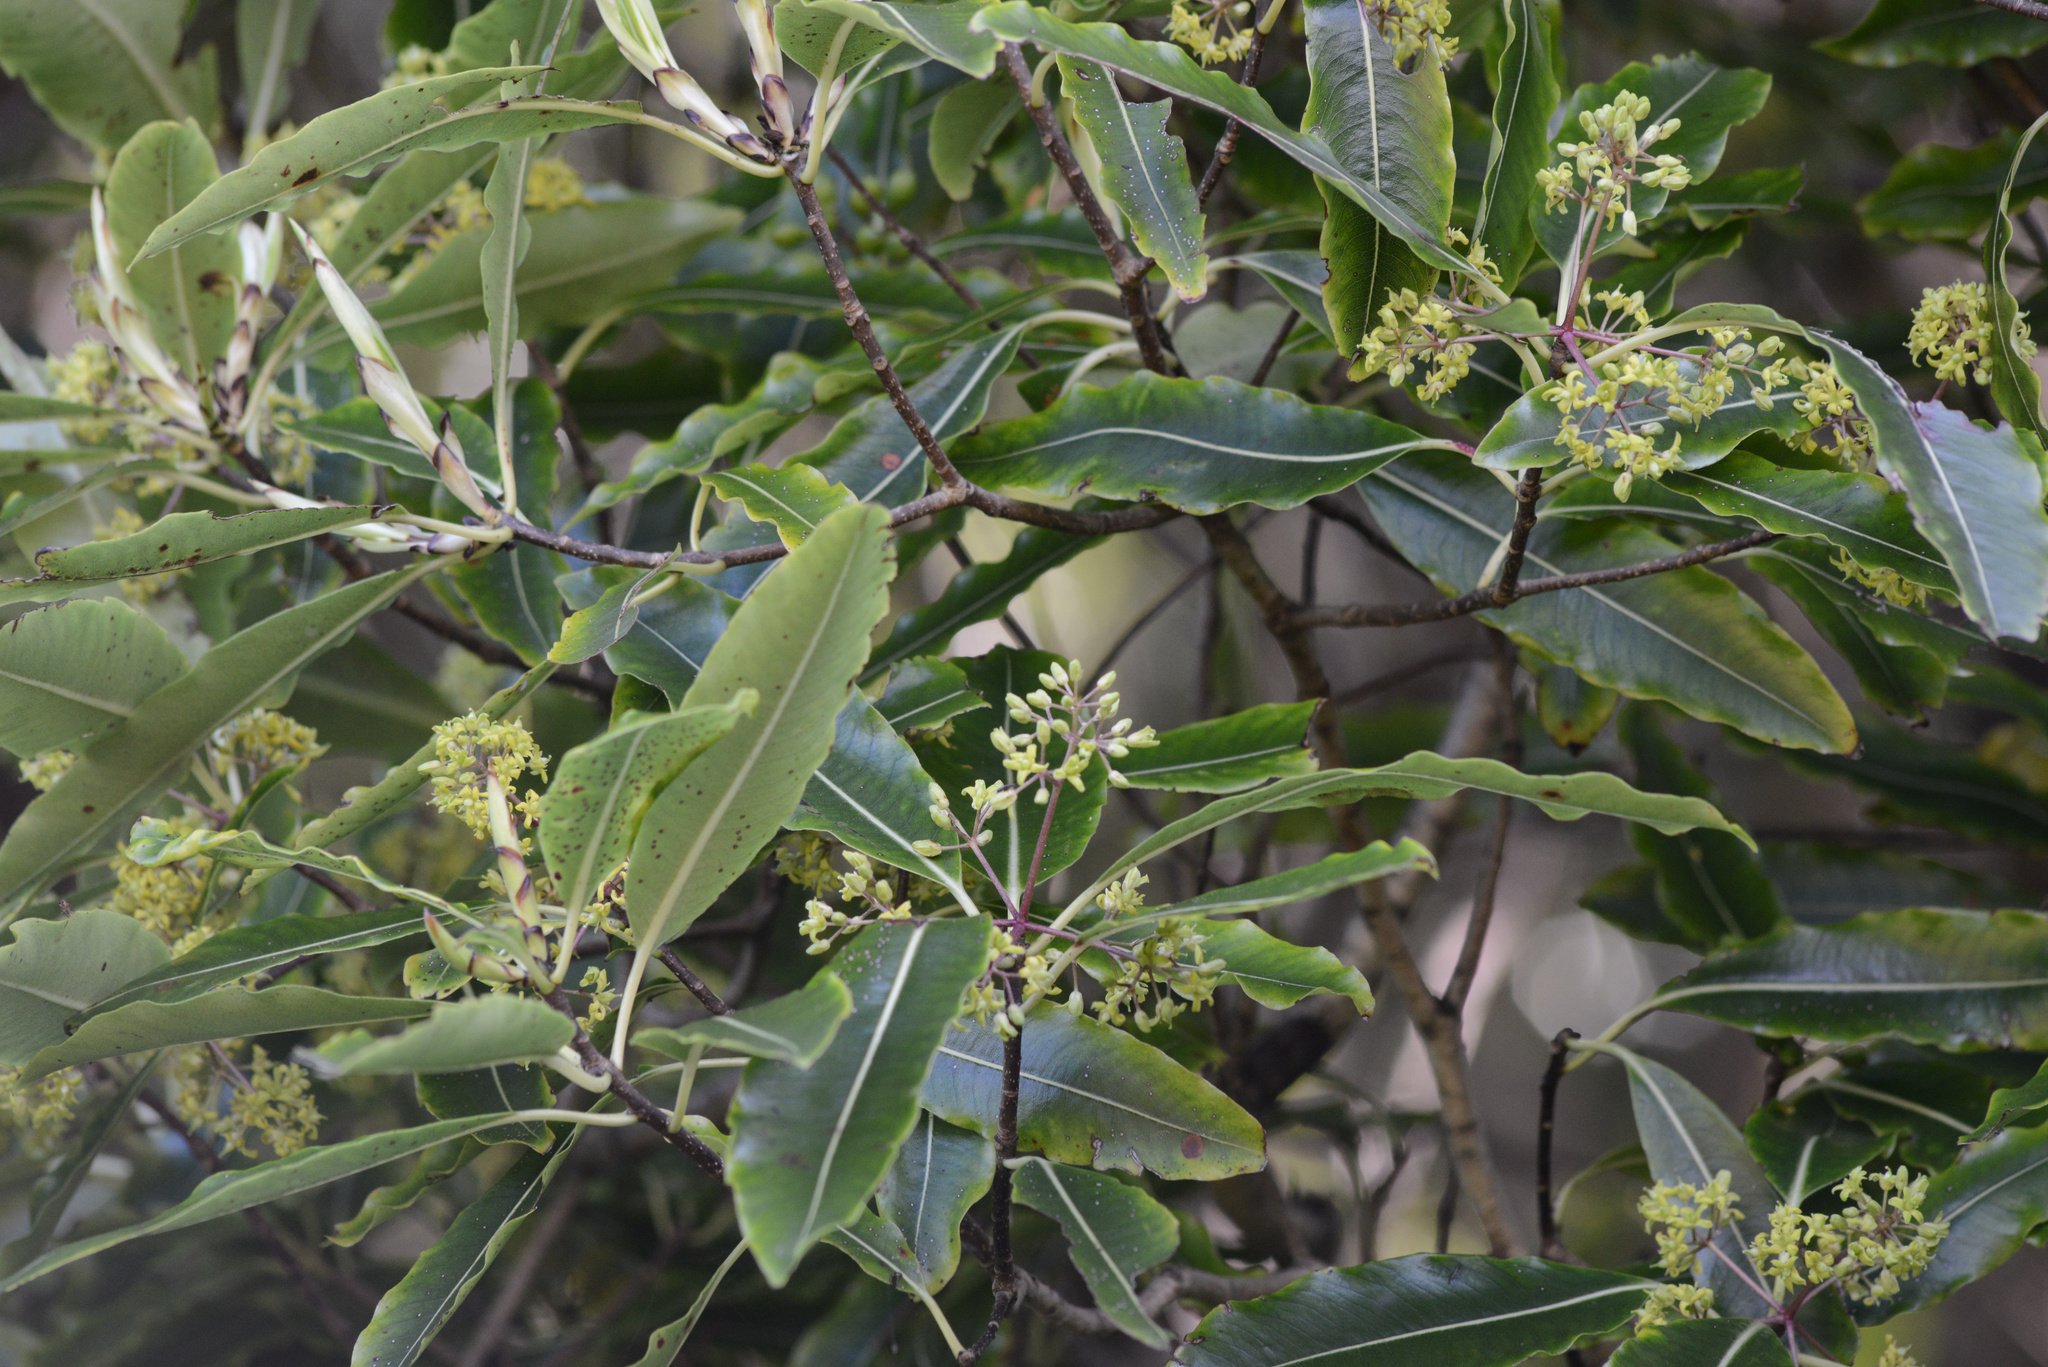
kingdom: Plantae
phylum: Tracheophyta
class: Magnoliopsida
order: Apiales
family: Pittosporaceae
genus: Pittosporum
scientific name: Pittosporum eugenioides
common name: Lemonwood
